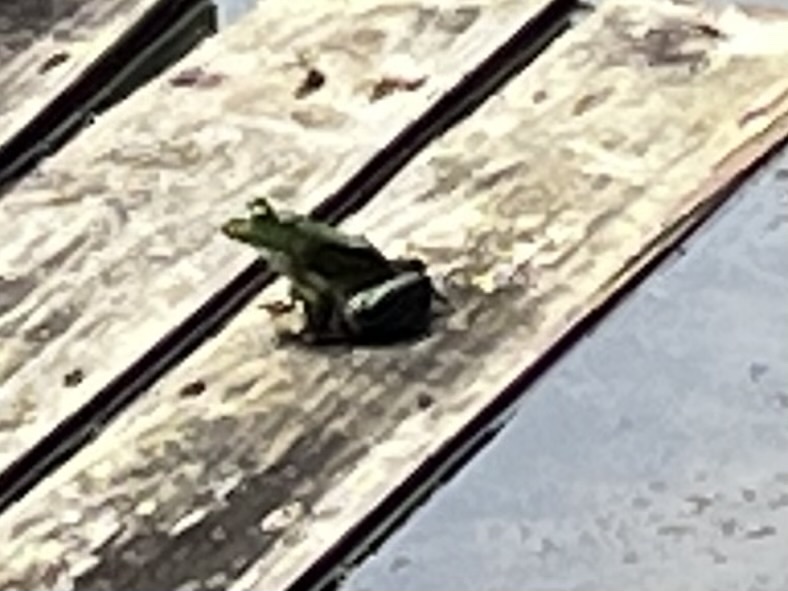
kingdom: Animalia
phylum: Chordata
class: Amphibia
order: Anura
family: Ranidae
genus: Lithobates
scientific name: Lithobates catesbeianus
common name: American bullfrog
